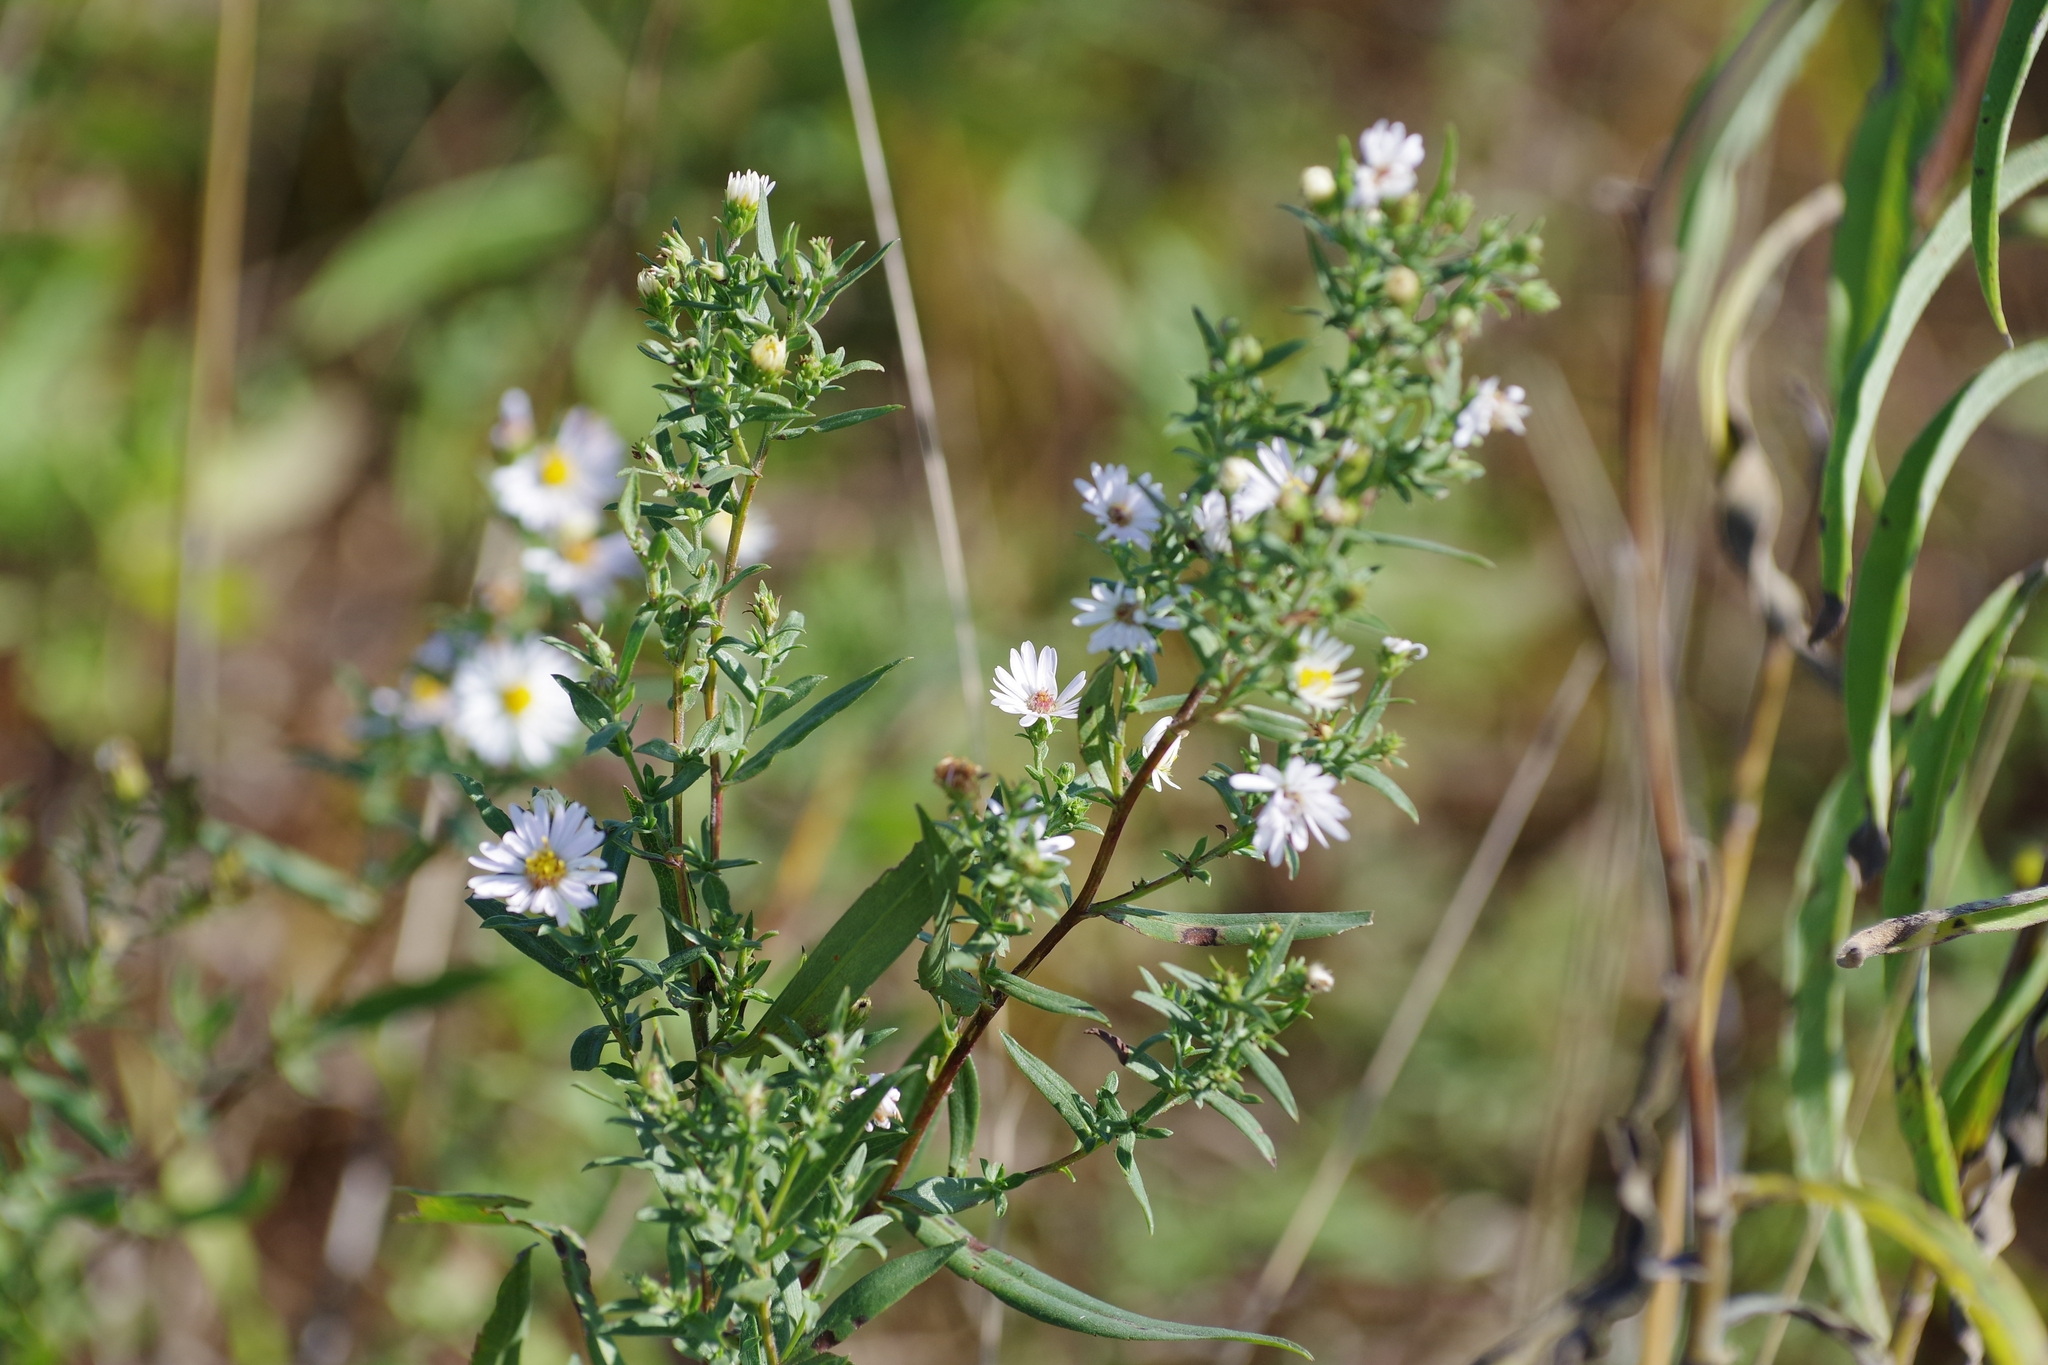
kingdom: Plantae
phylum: Tracheophyta
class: Magnoliopsida
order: Asterales
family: Asteraceae
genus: Symphyotrichum
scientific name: Symphyotrichum ericoides
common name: Heath aster
